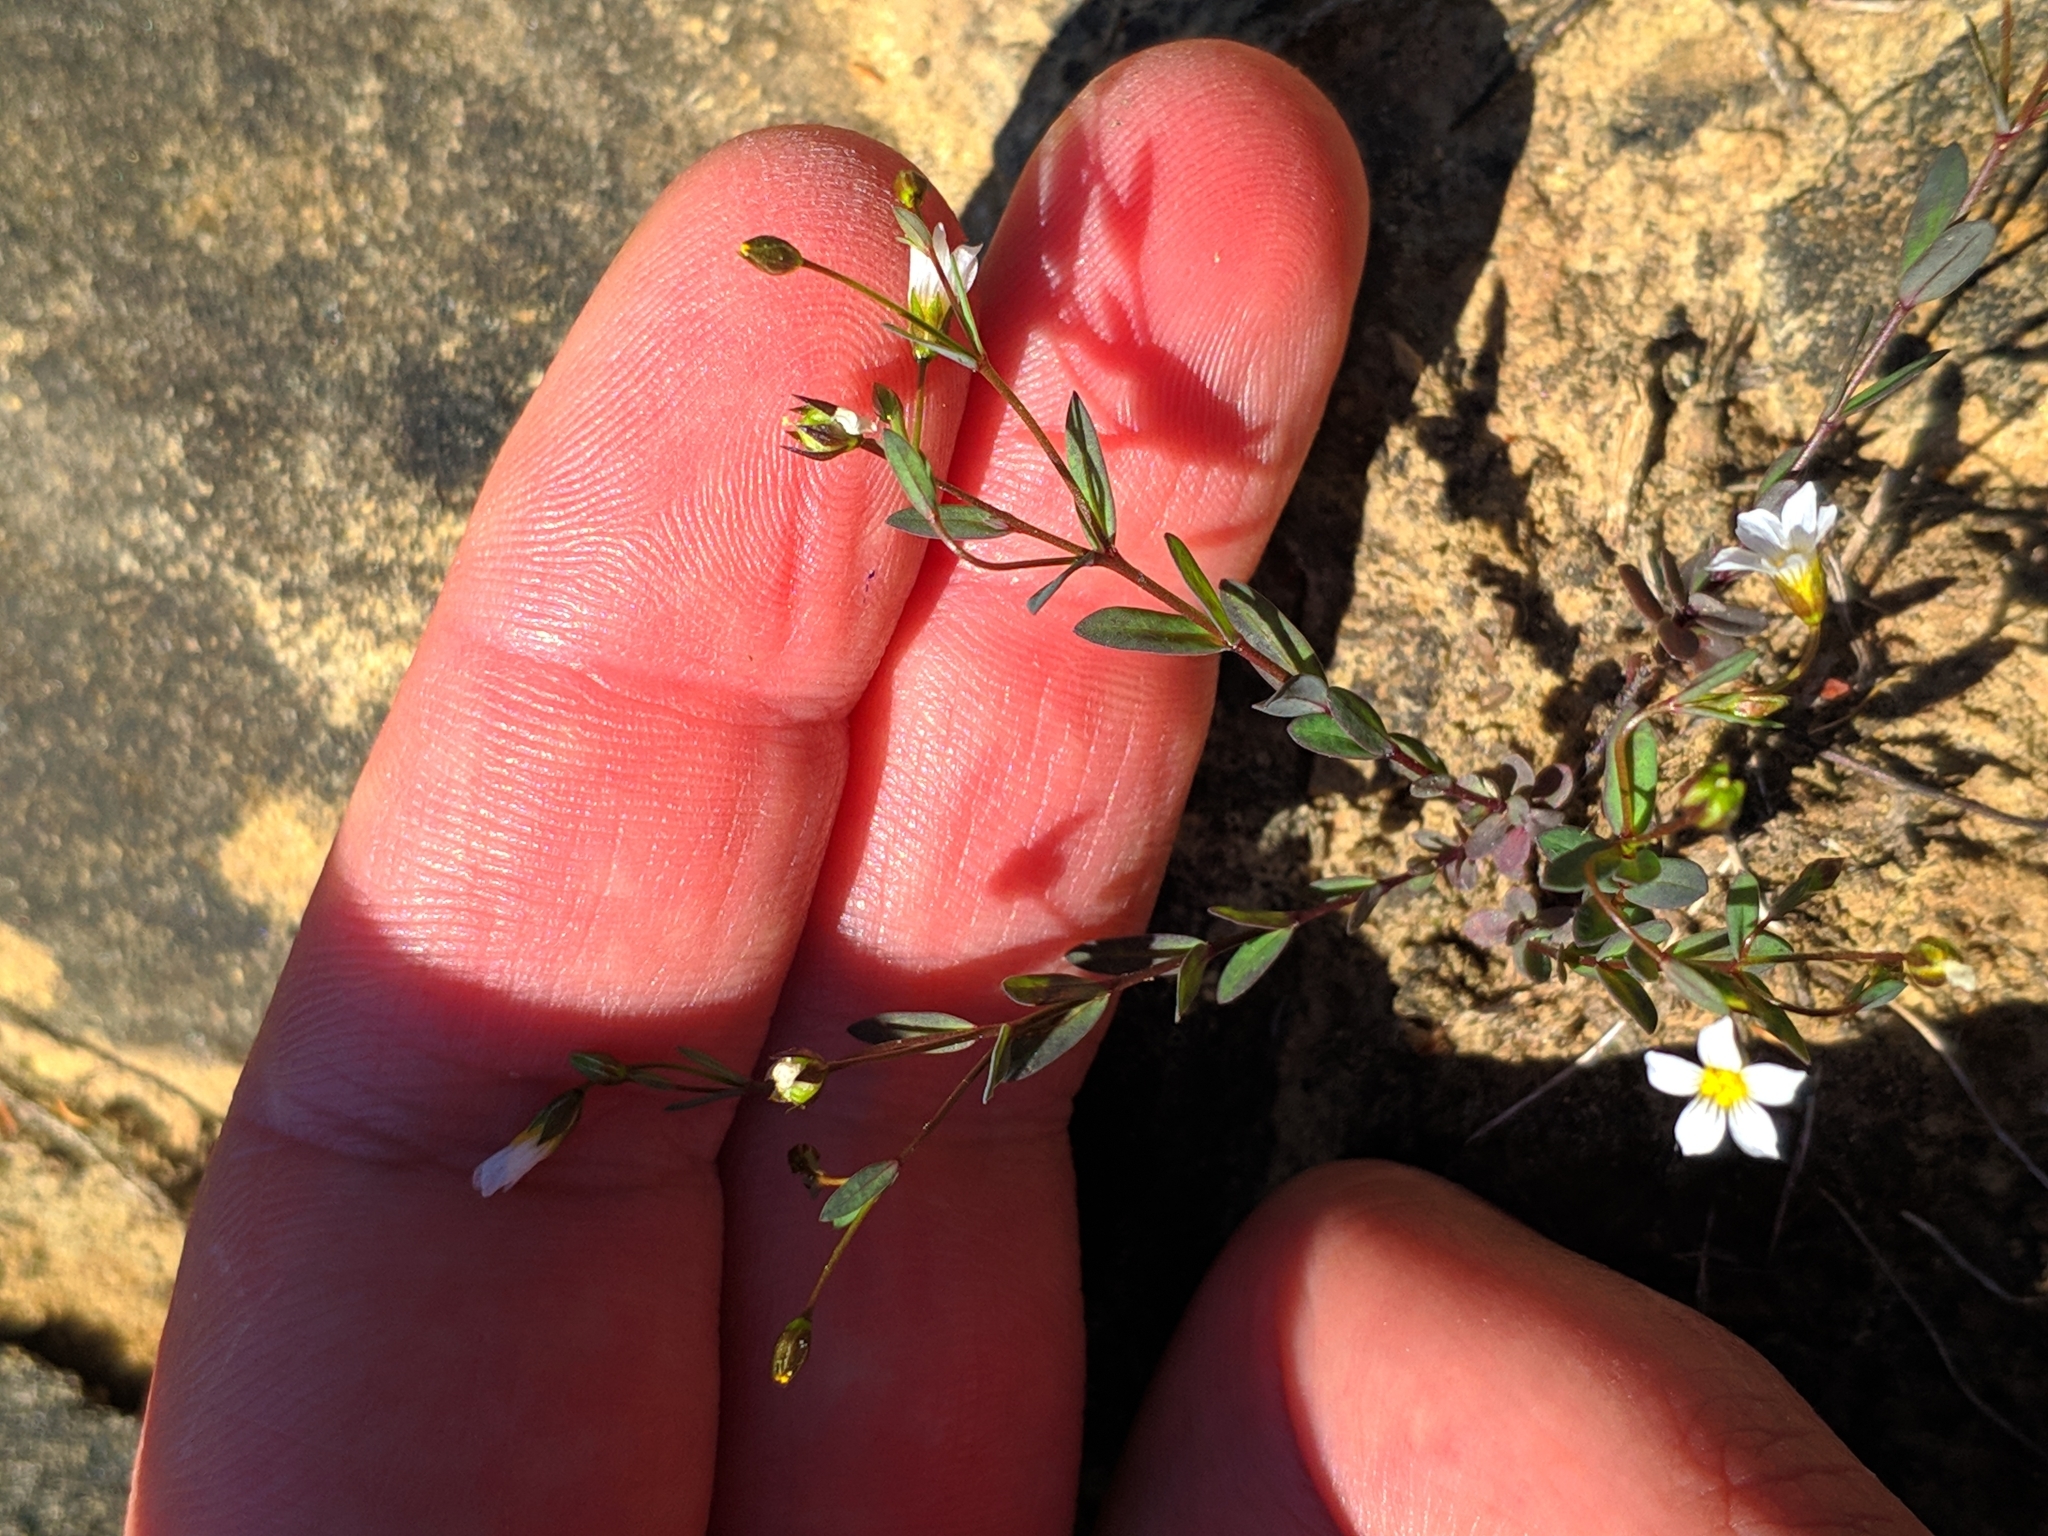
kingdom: Plantae
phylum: Tracheophyta
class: Magnoliopsida
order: Malpighiales
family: Linaceae
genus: Linum
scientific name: Linum catharticum
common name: Fairy flax
